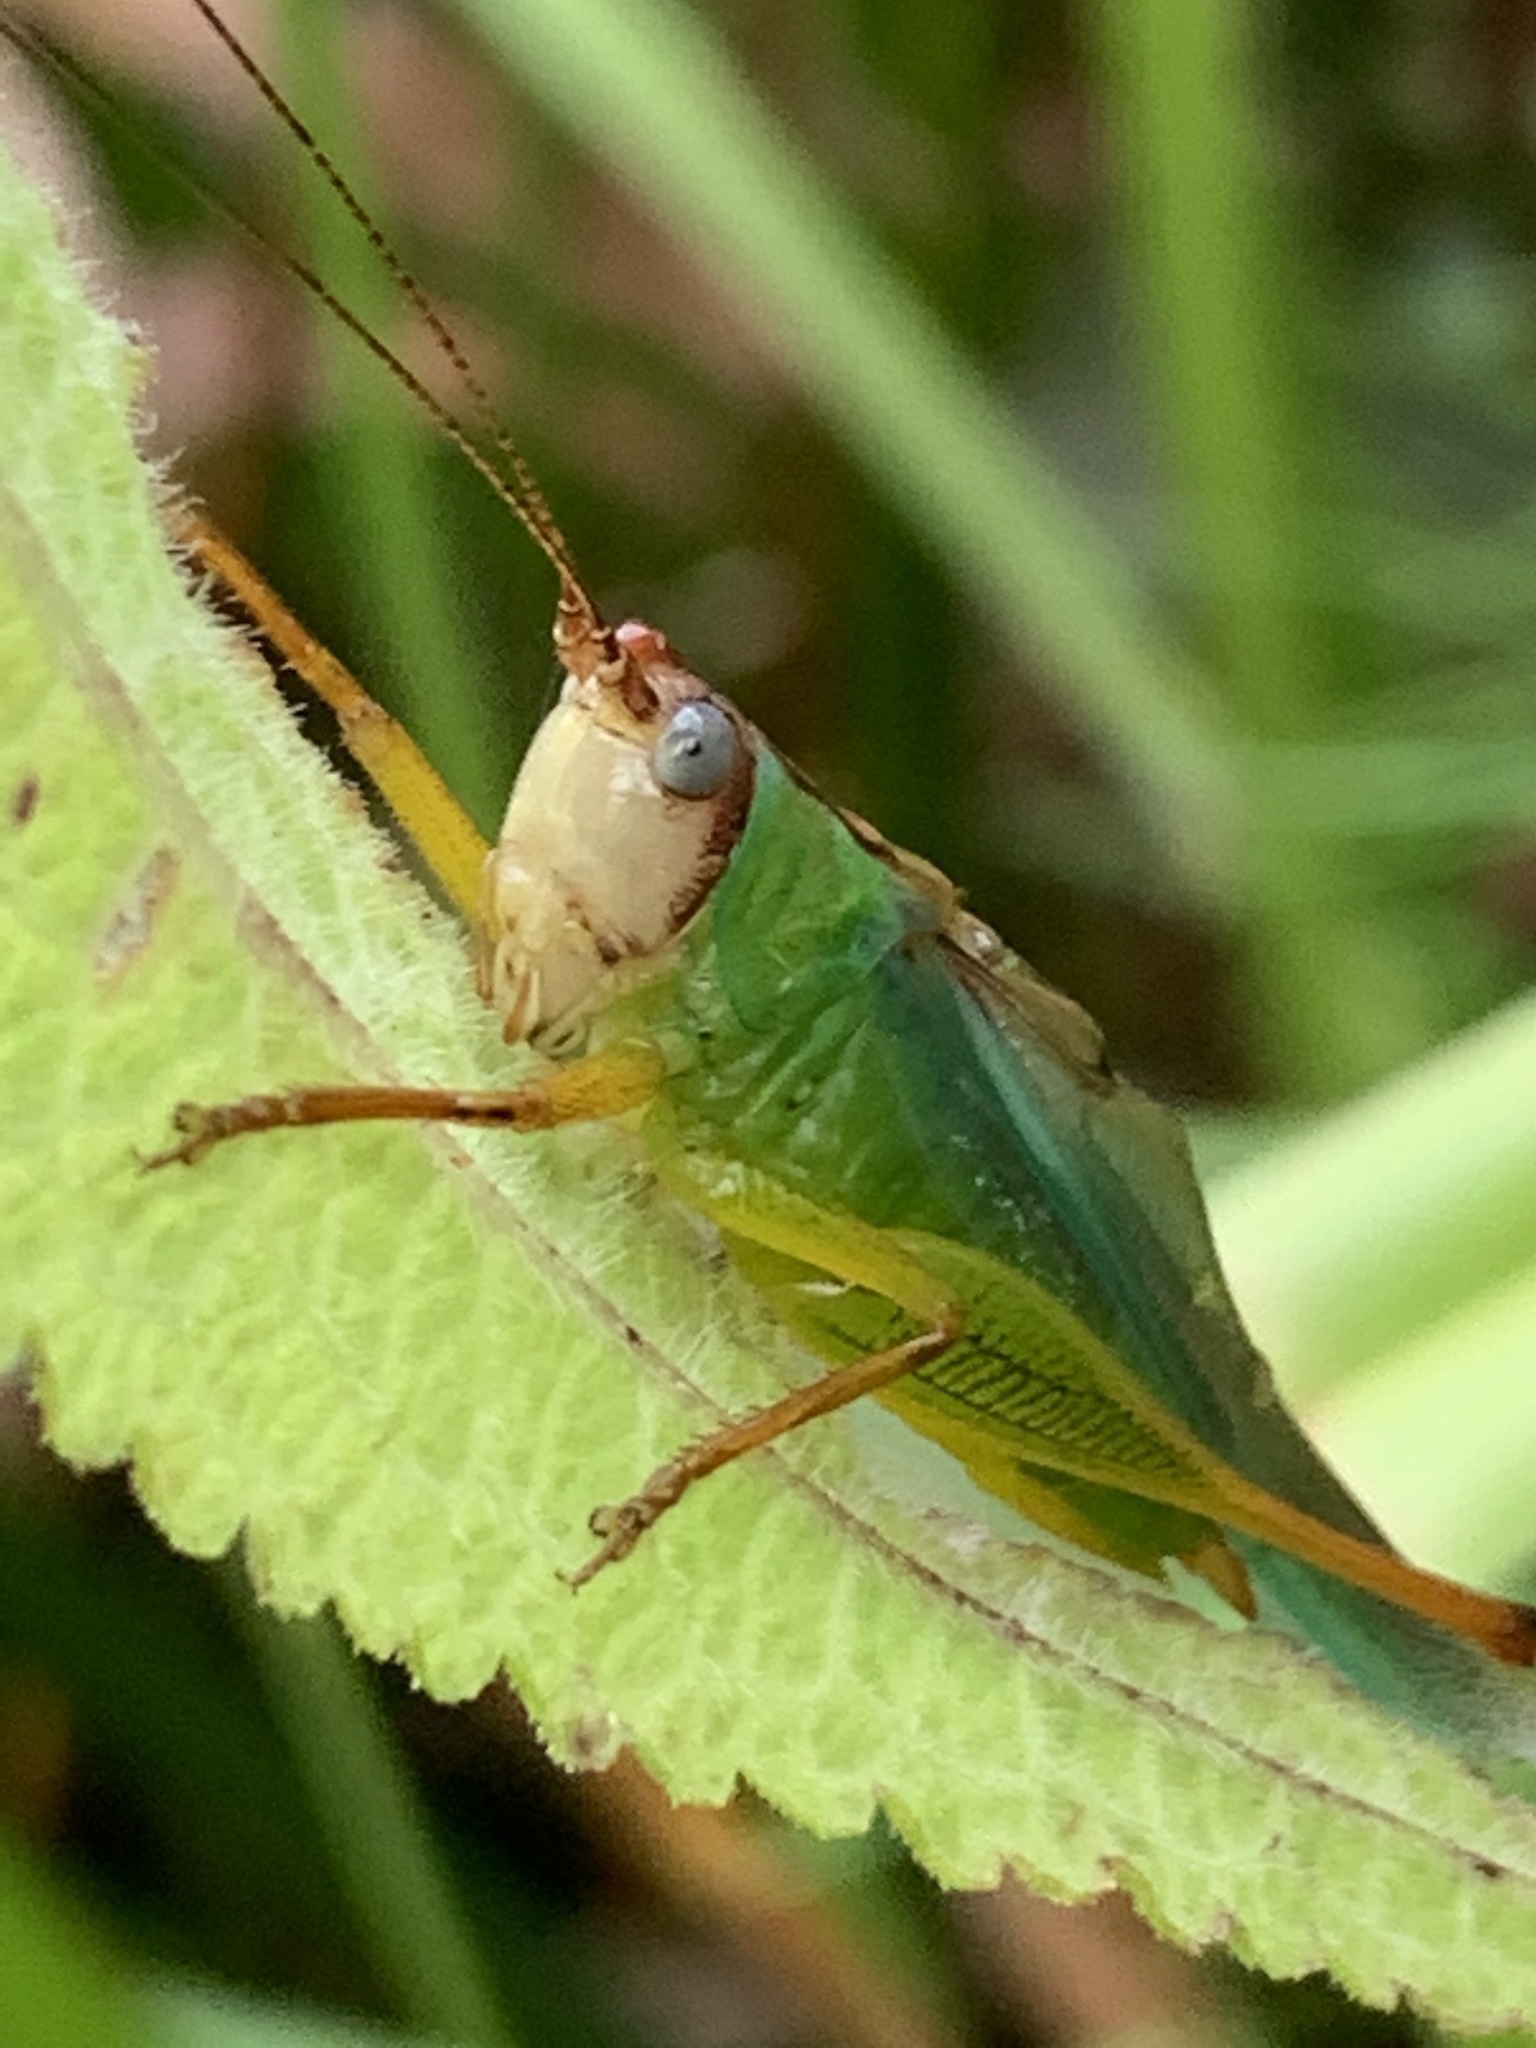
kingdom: Animalia
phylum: Arthropoda
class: Insecta
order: Orthoptera
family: Tettigoniidae
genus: Orchelimum
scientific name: Orchelimum pulchellum
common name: Handsome meadow katydid
